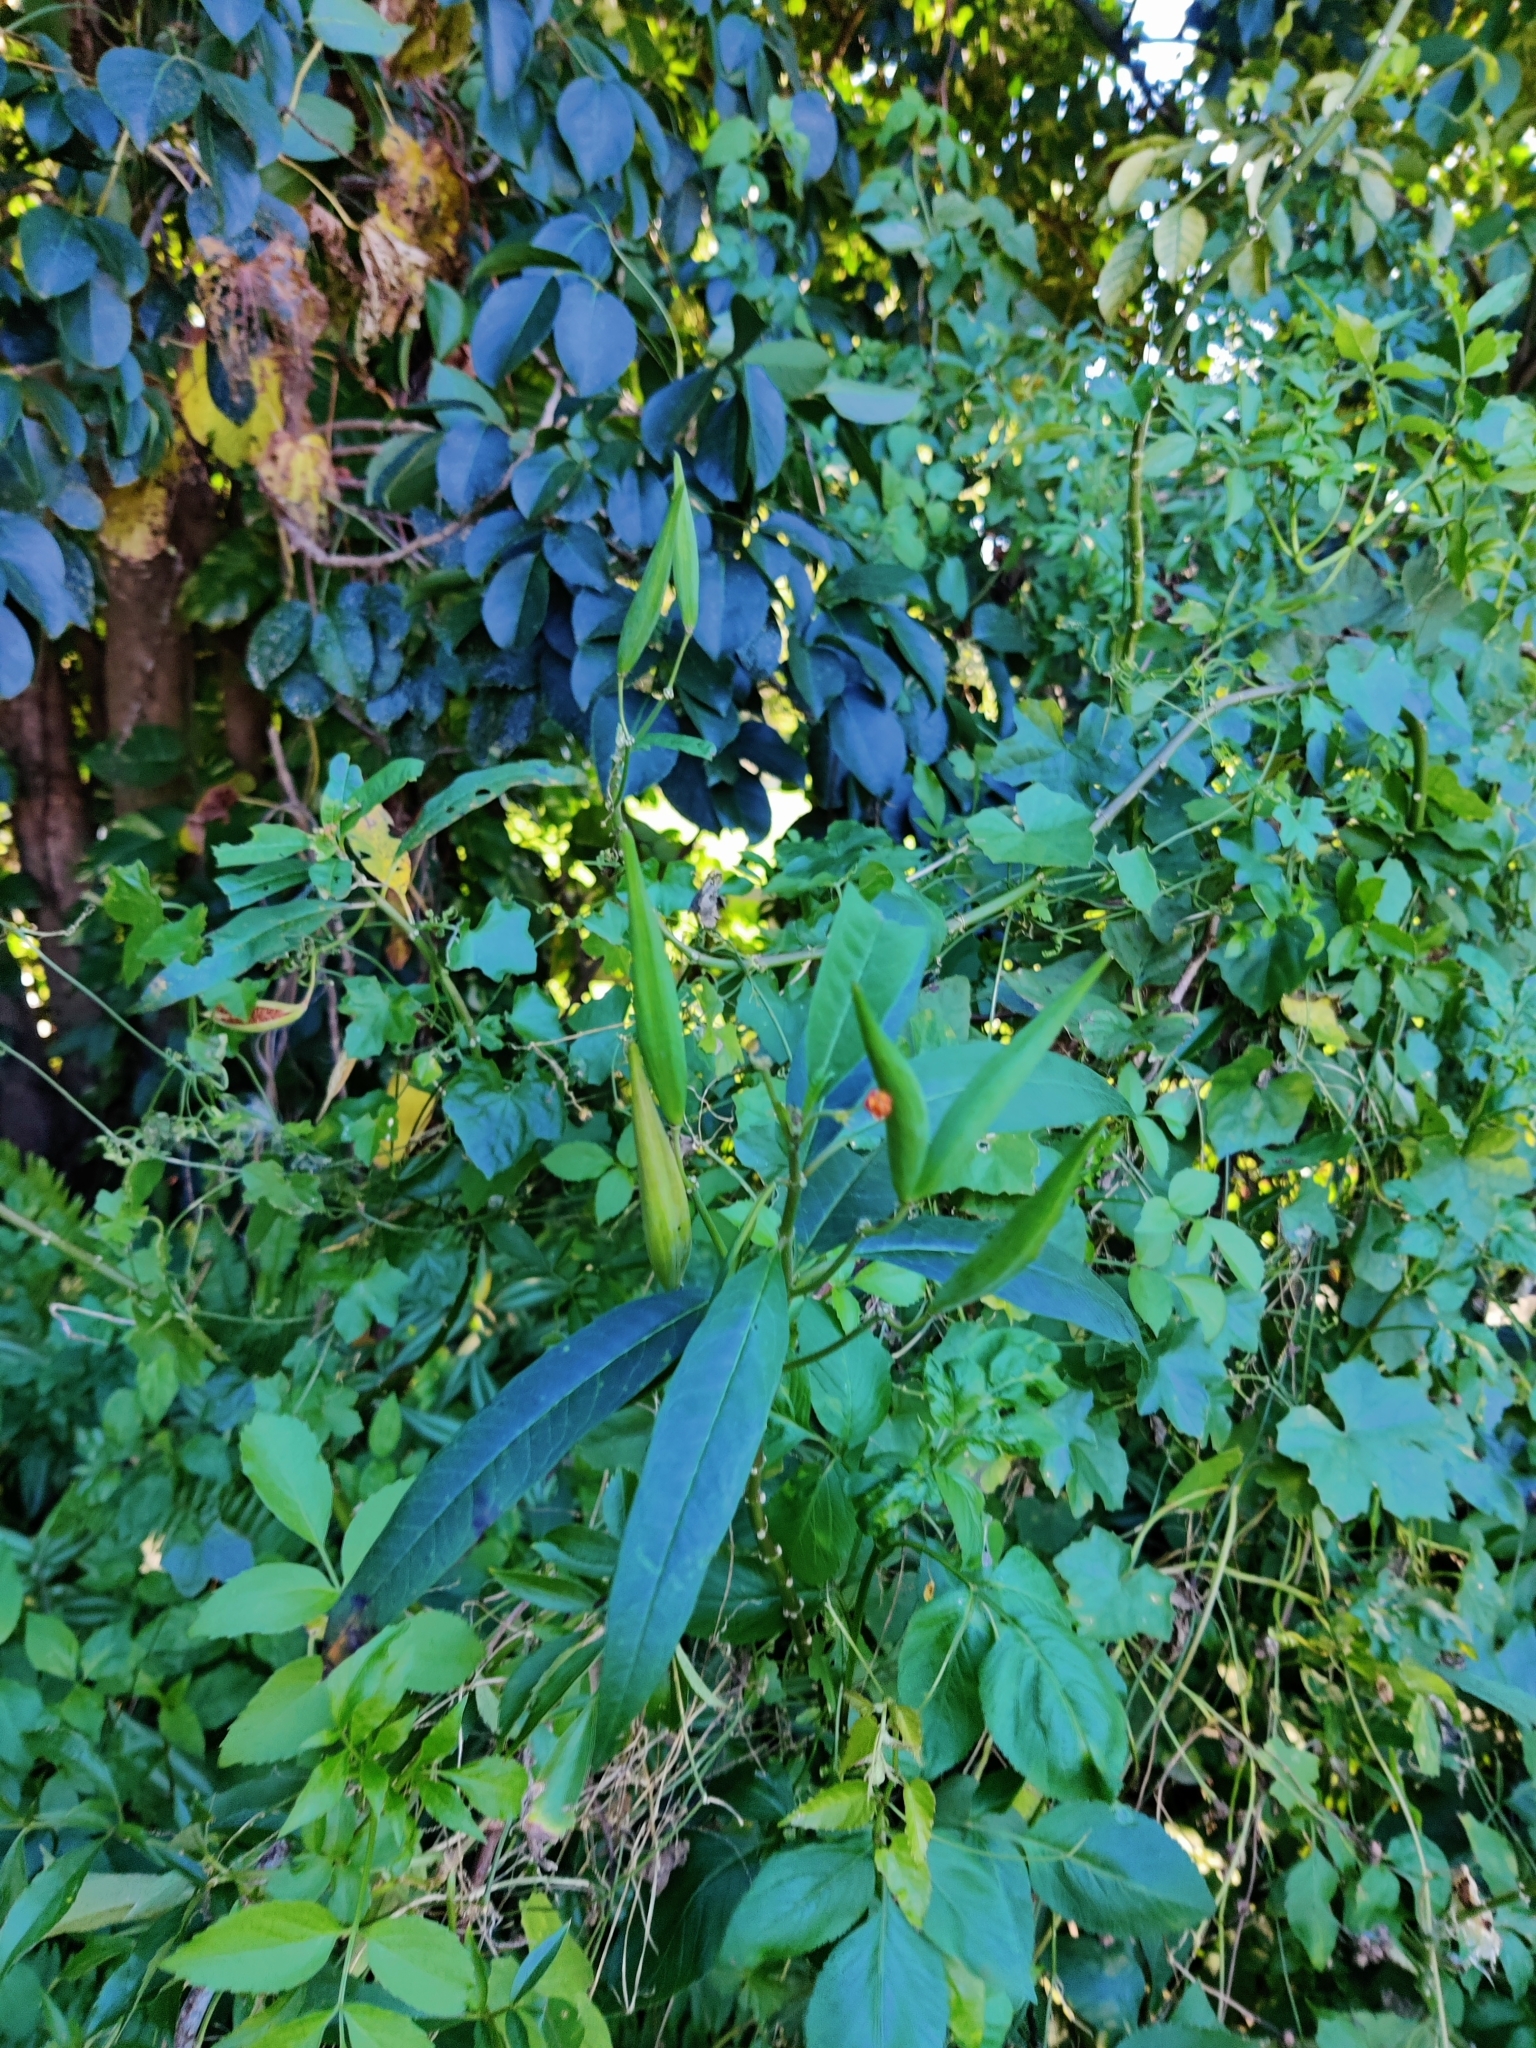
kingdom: Plantae
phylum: Tracheophyta
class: Magnoliopsida
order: Gentianales
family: Apocynaceae
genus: Asclepias
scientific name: Asclepias curassavica
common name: Bloodflower
